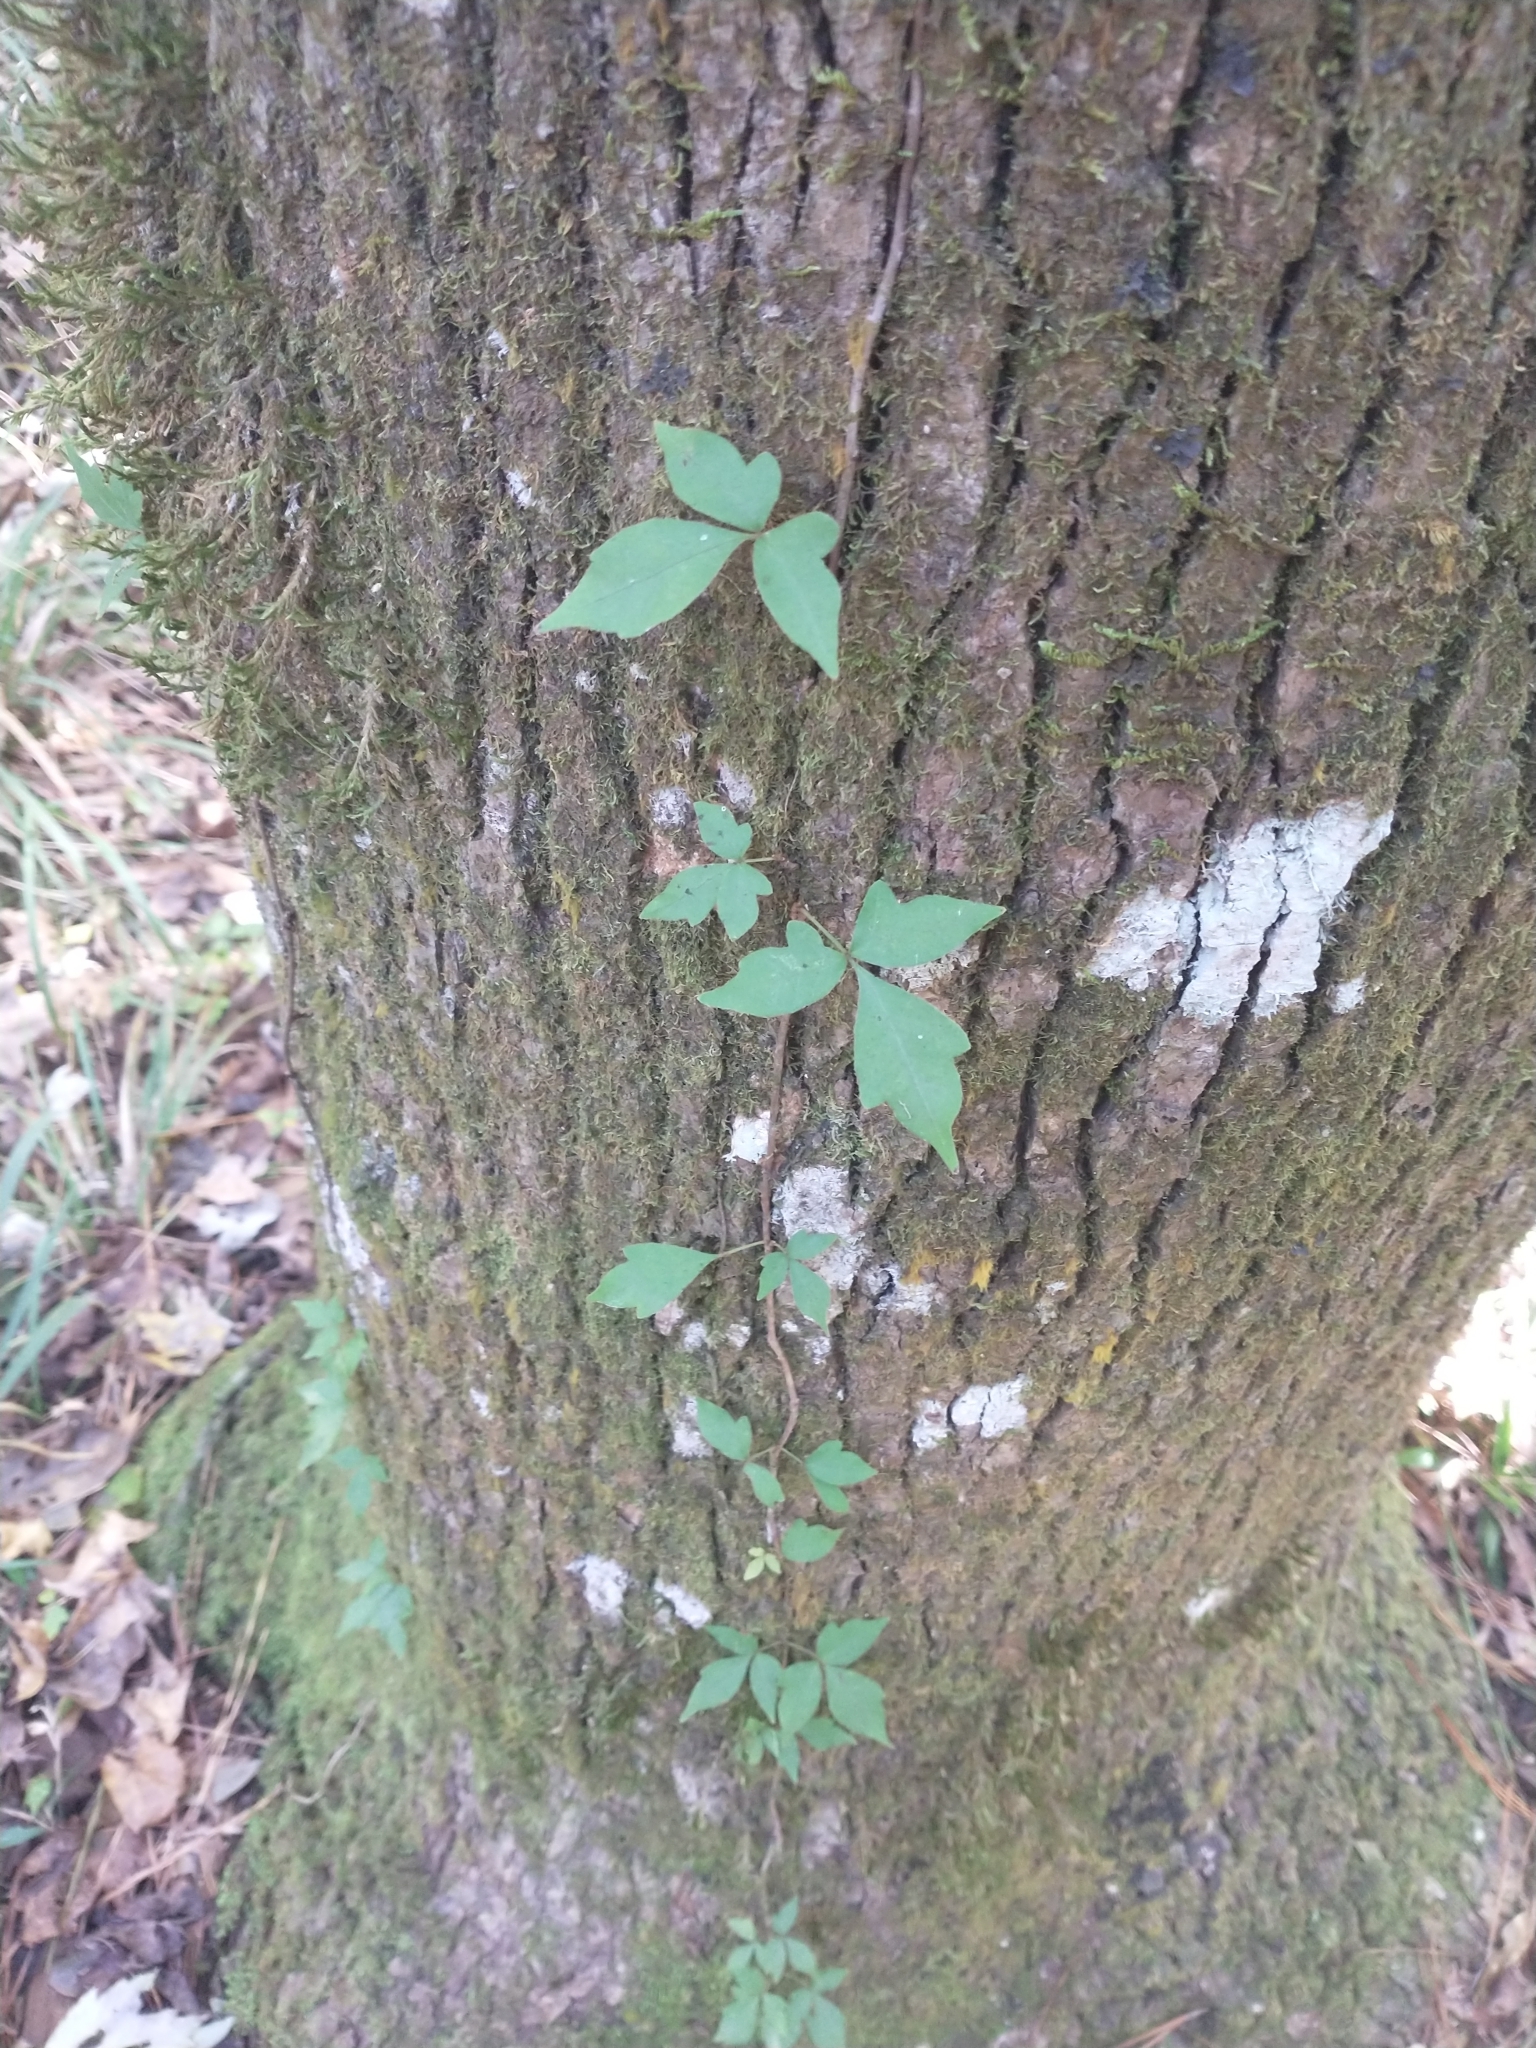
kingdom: Plantae
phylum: Tracheophyta
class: Magnoliopsida
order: Sapindales
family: Anacardiaceae
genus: Toxicodendron
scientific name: Toxicodendron radicans
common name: Poison ivy
